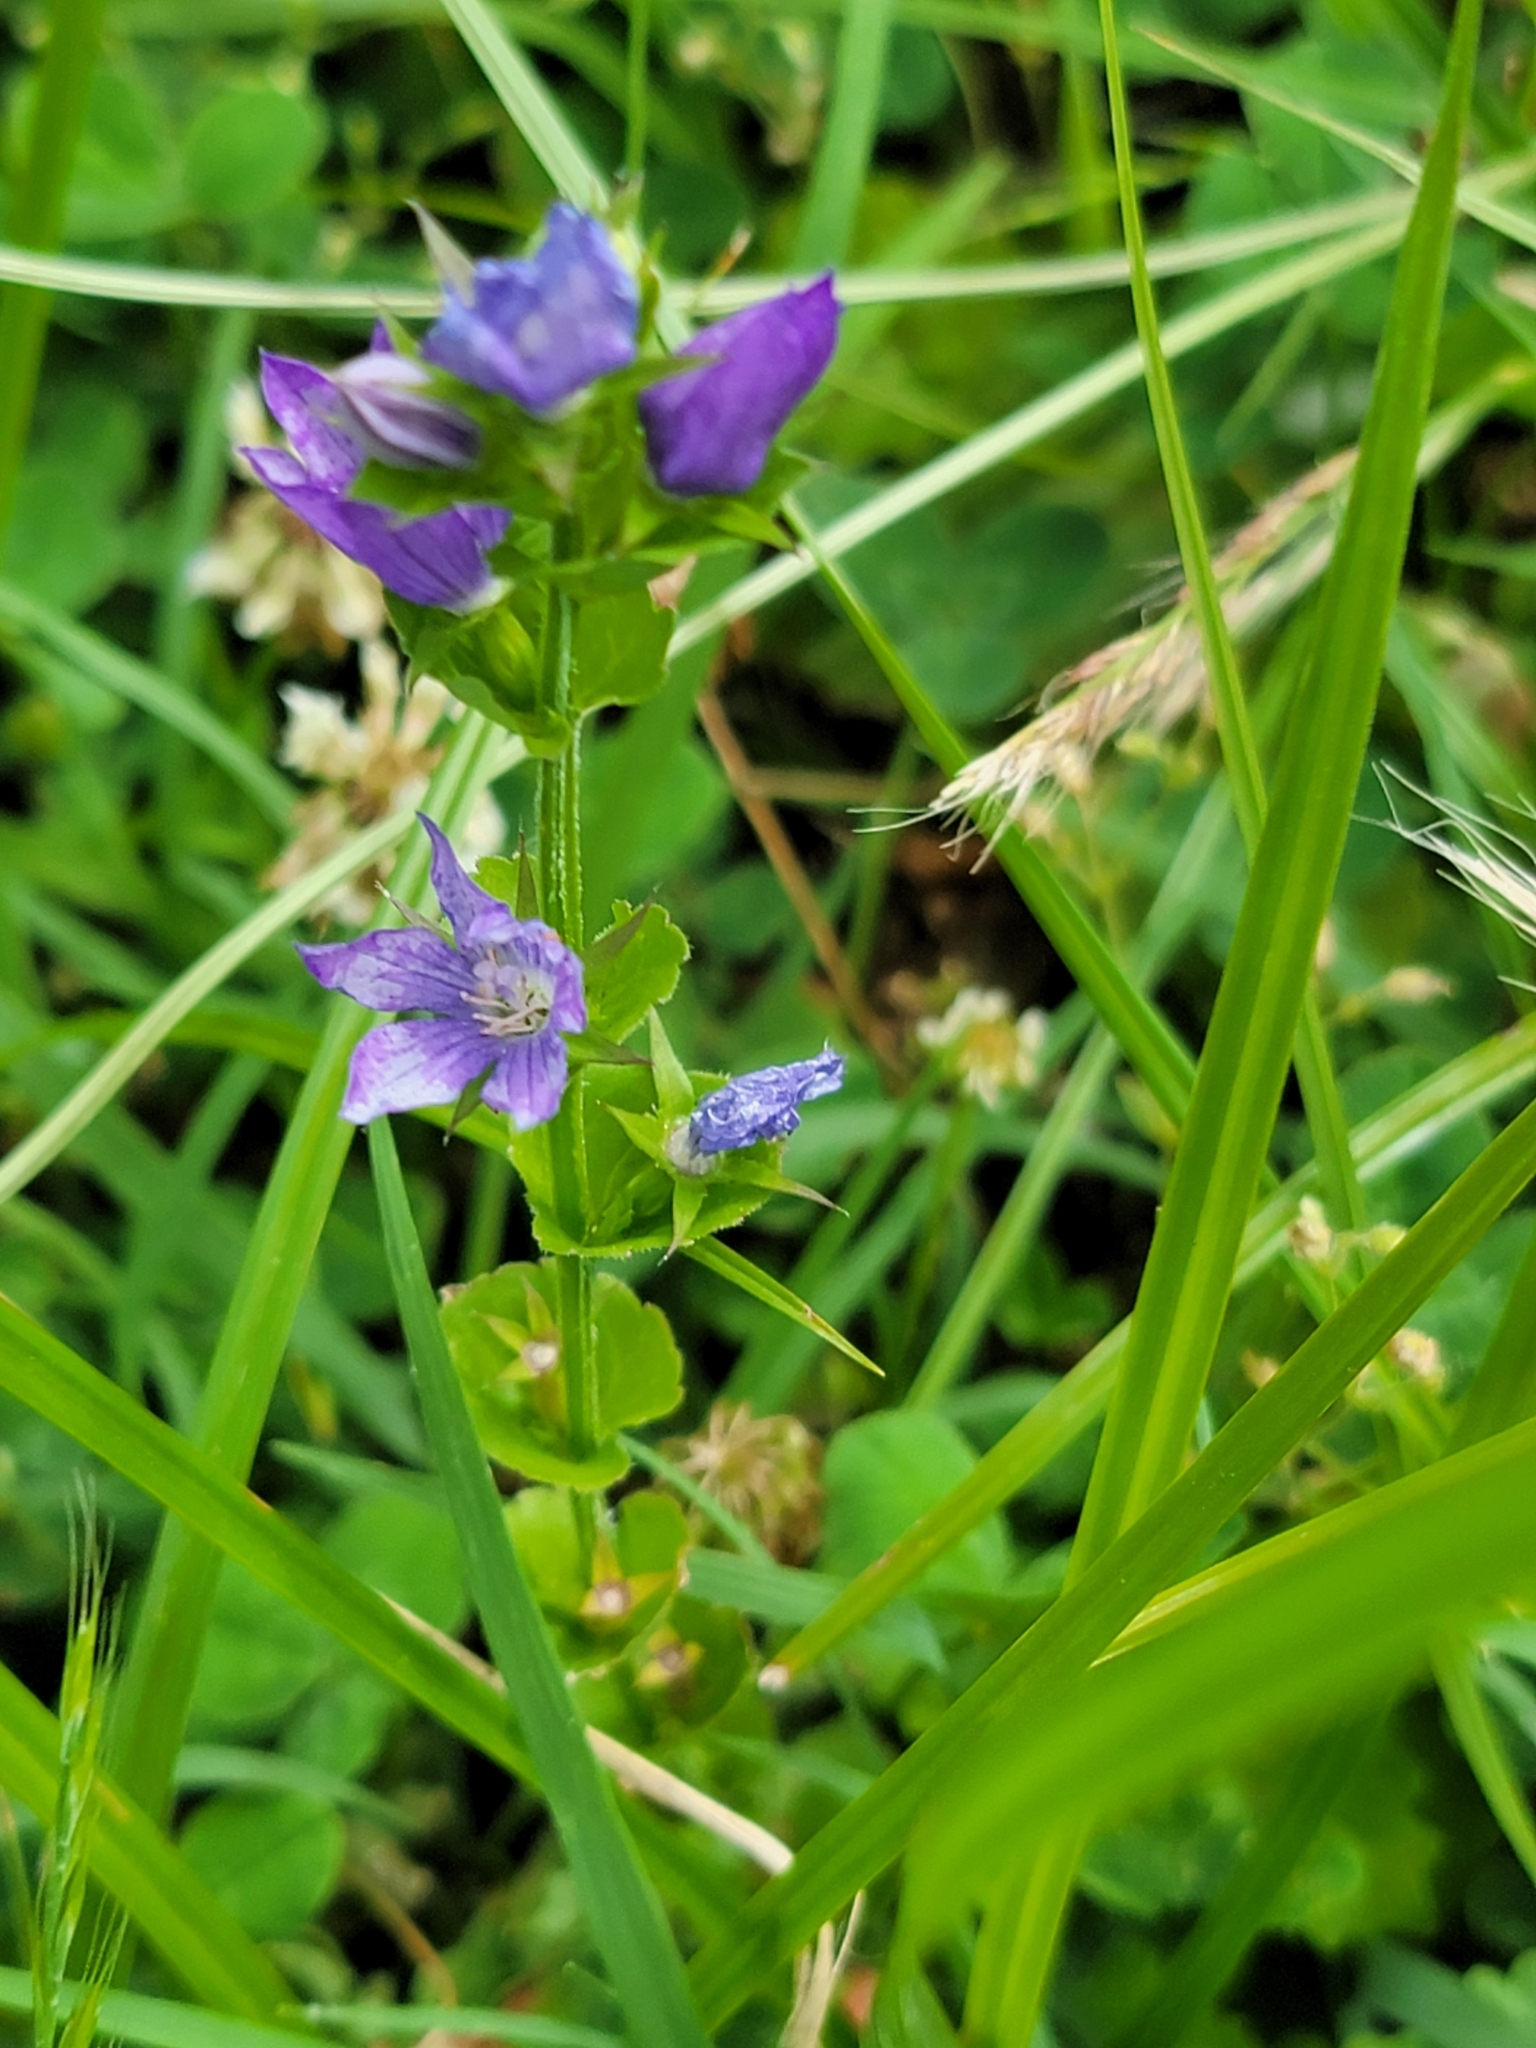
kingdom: Plantae
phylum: Tracheophyta
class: Magnoliopsida
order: Asterales
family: Campanulaceae
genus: Triodanis
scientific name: Triodanis perfoliata
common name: Clasping venus' looking-glass
